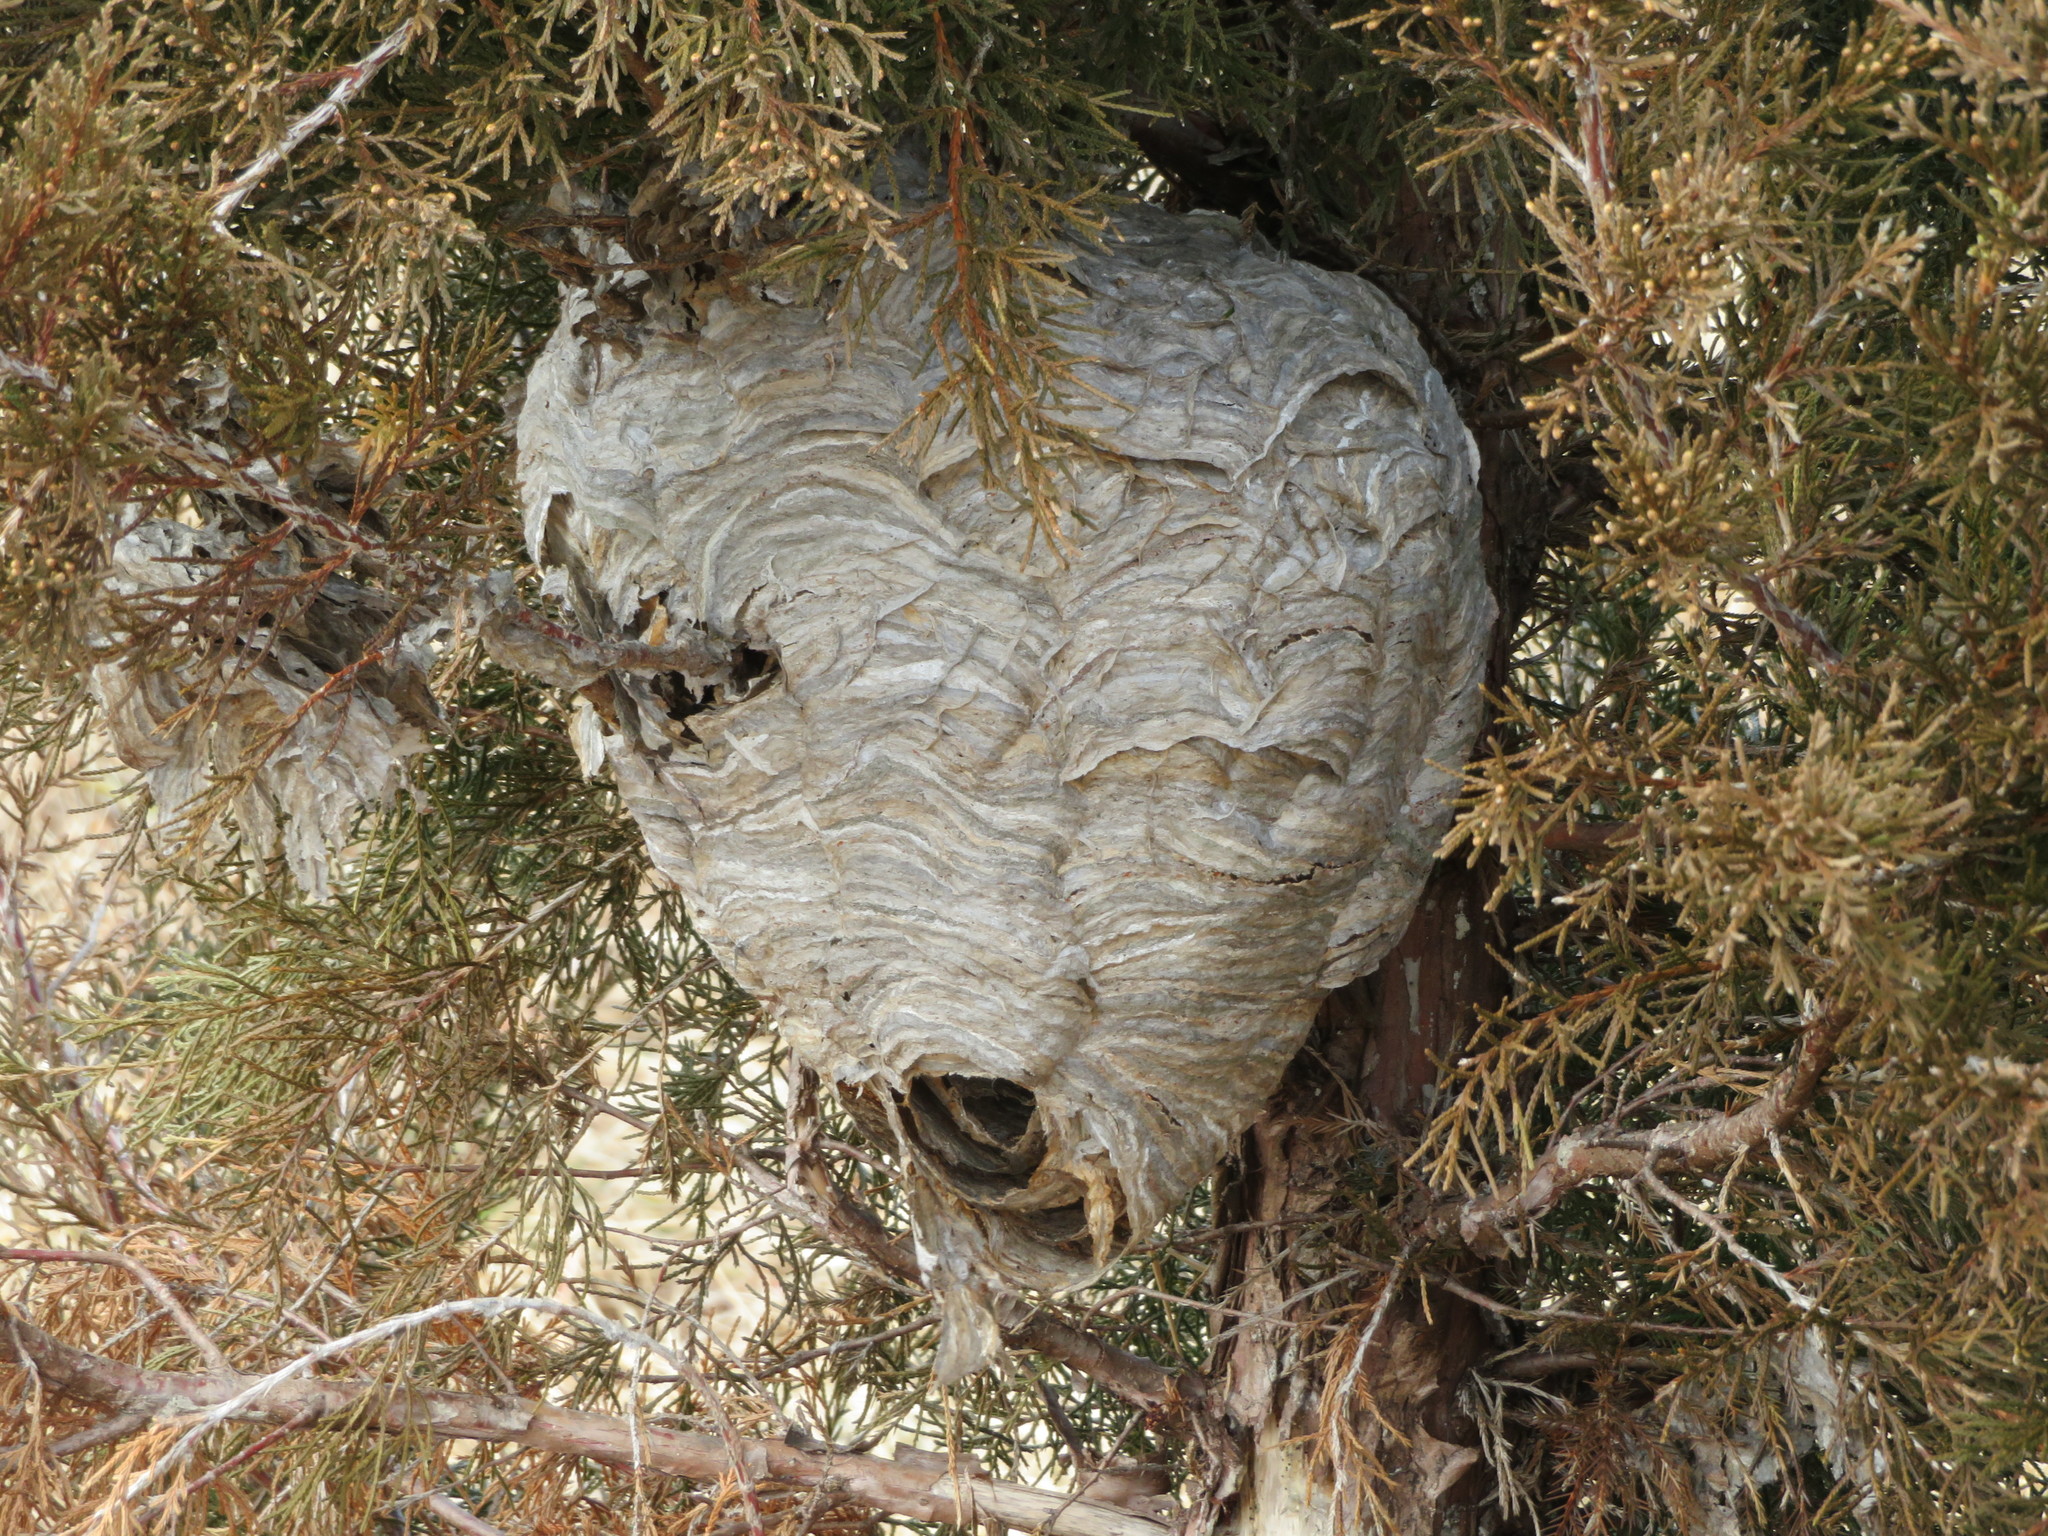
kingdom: Animalia
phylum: Arthropoda
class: Insecta
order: Hymenoptera
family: Vespidae
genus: Dolichovespula
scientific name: Dolichovespula
